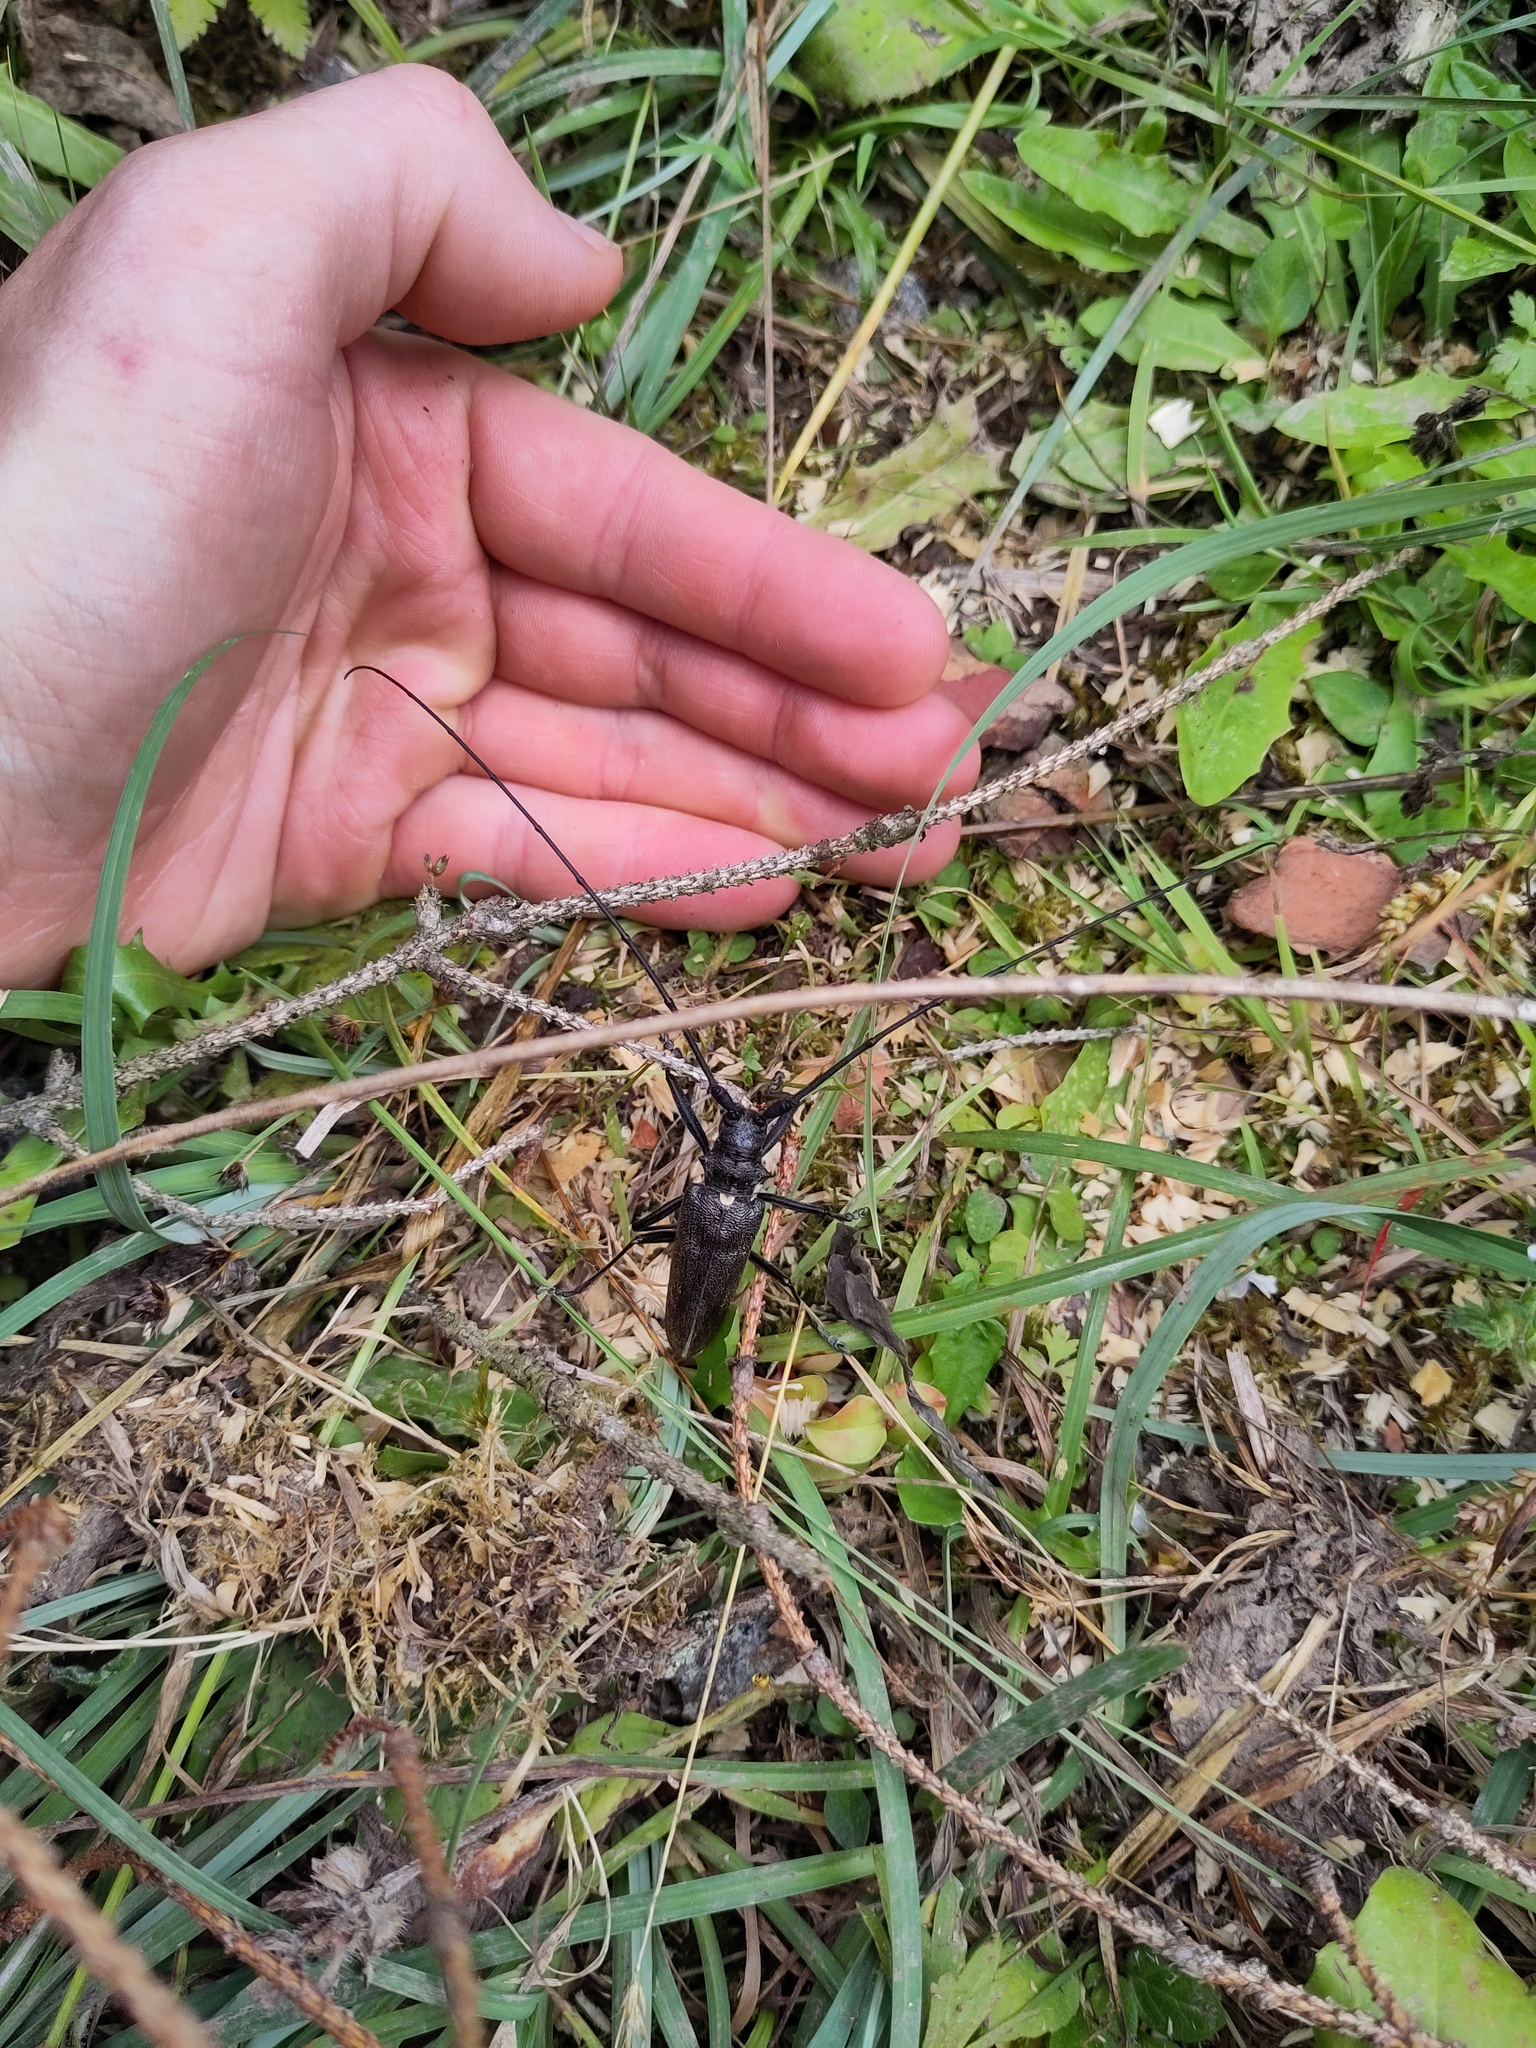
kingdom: Animalia
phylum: Arthropoda
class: Insecta
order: Coleoptera
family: Cerambycidae
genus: Monochamus
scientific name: Monochamus sartor
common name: Pine sawyer
